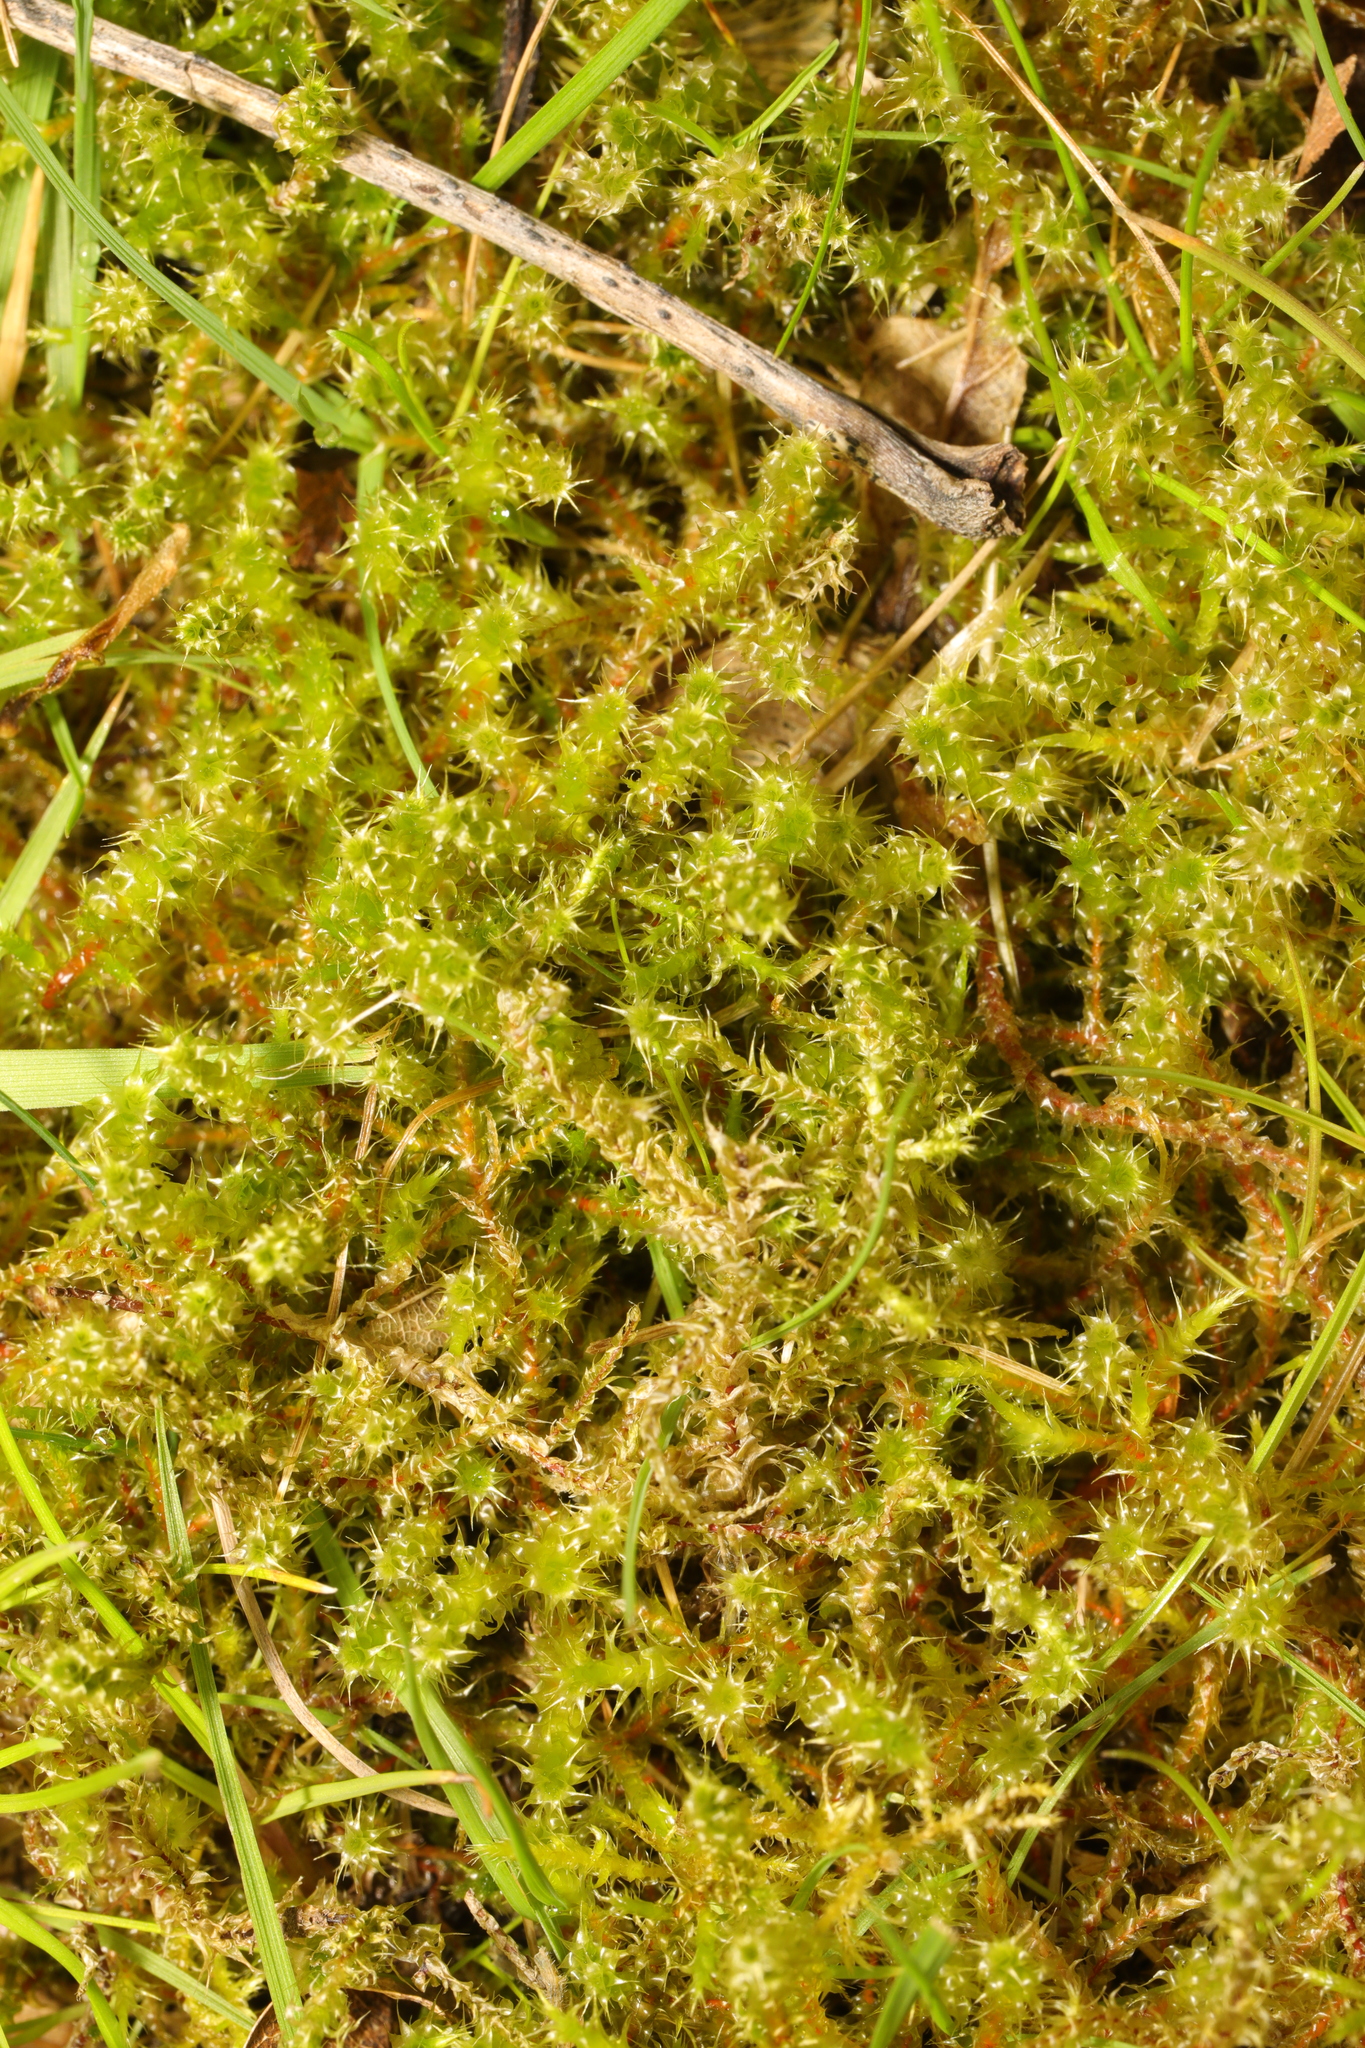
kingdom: Plantae
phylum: Bryophyta
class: Bryopsida
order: Hypnales
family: Hylocomiaceae
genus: Rhytidiadelphus
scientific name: Rhytidiadelphus squarrosus
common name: Springy turf-moss
